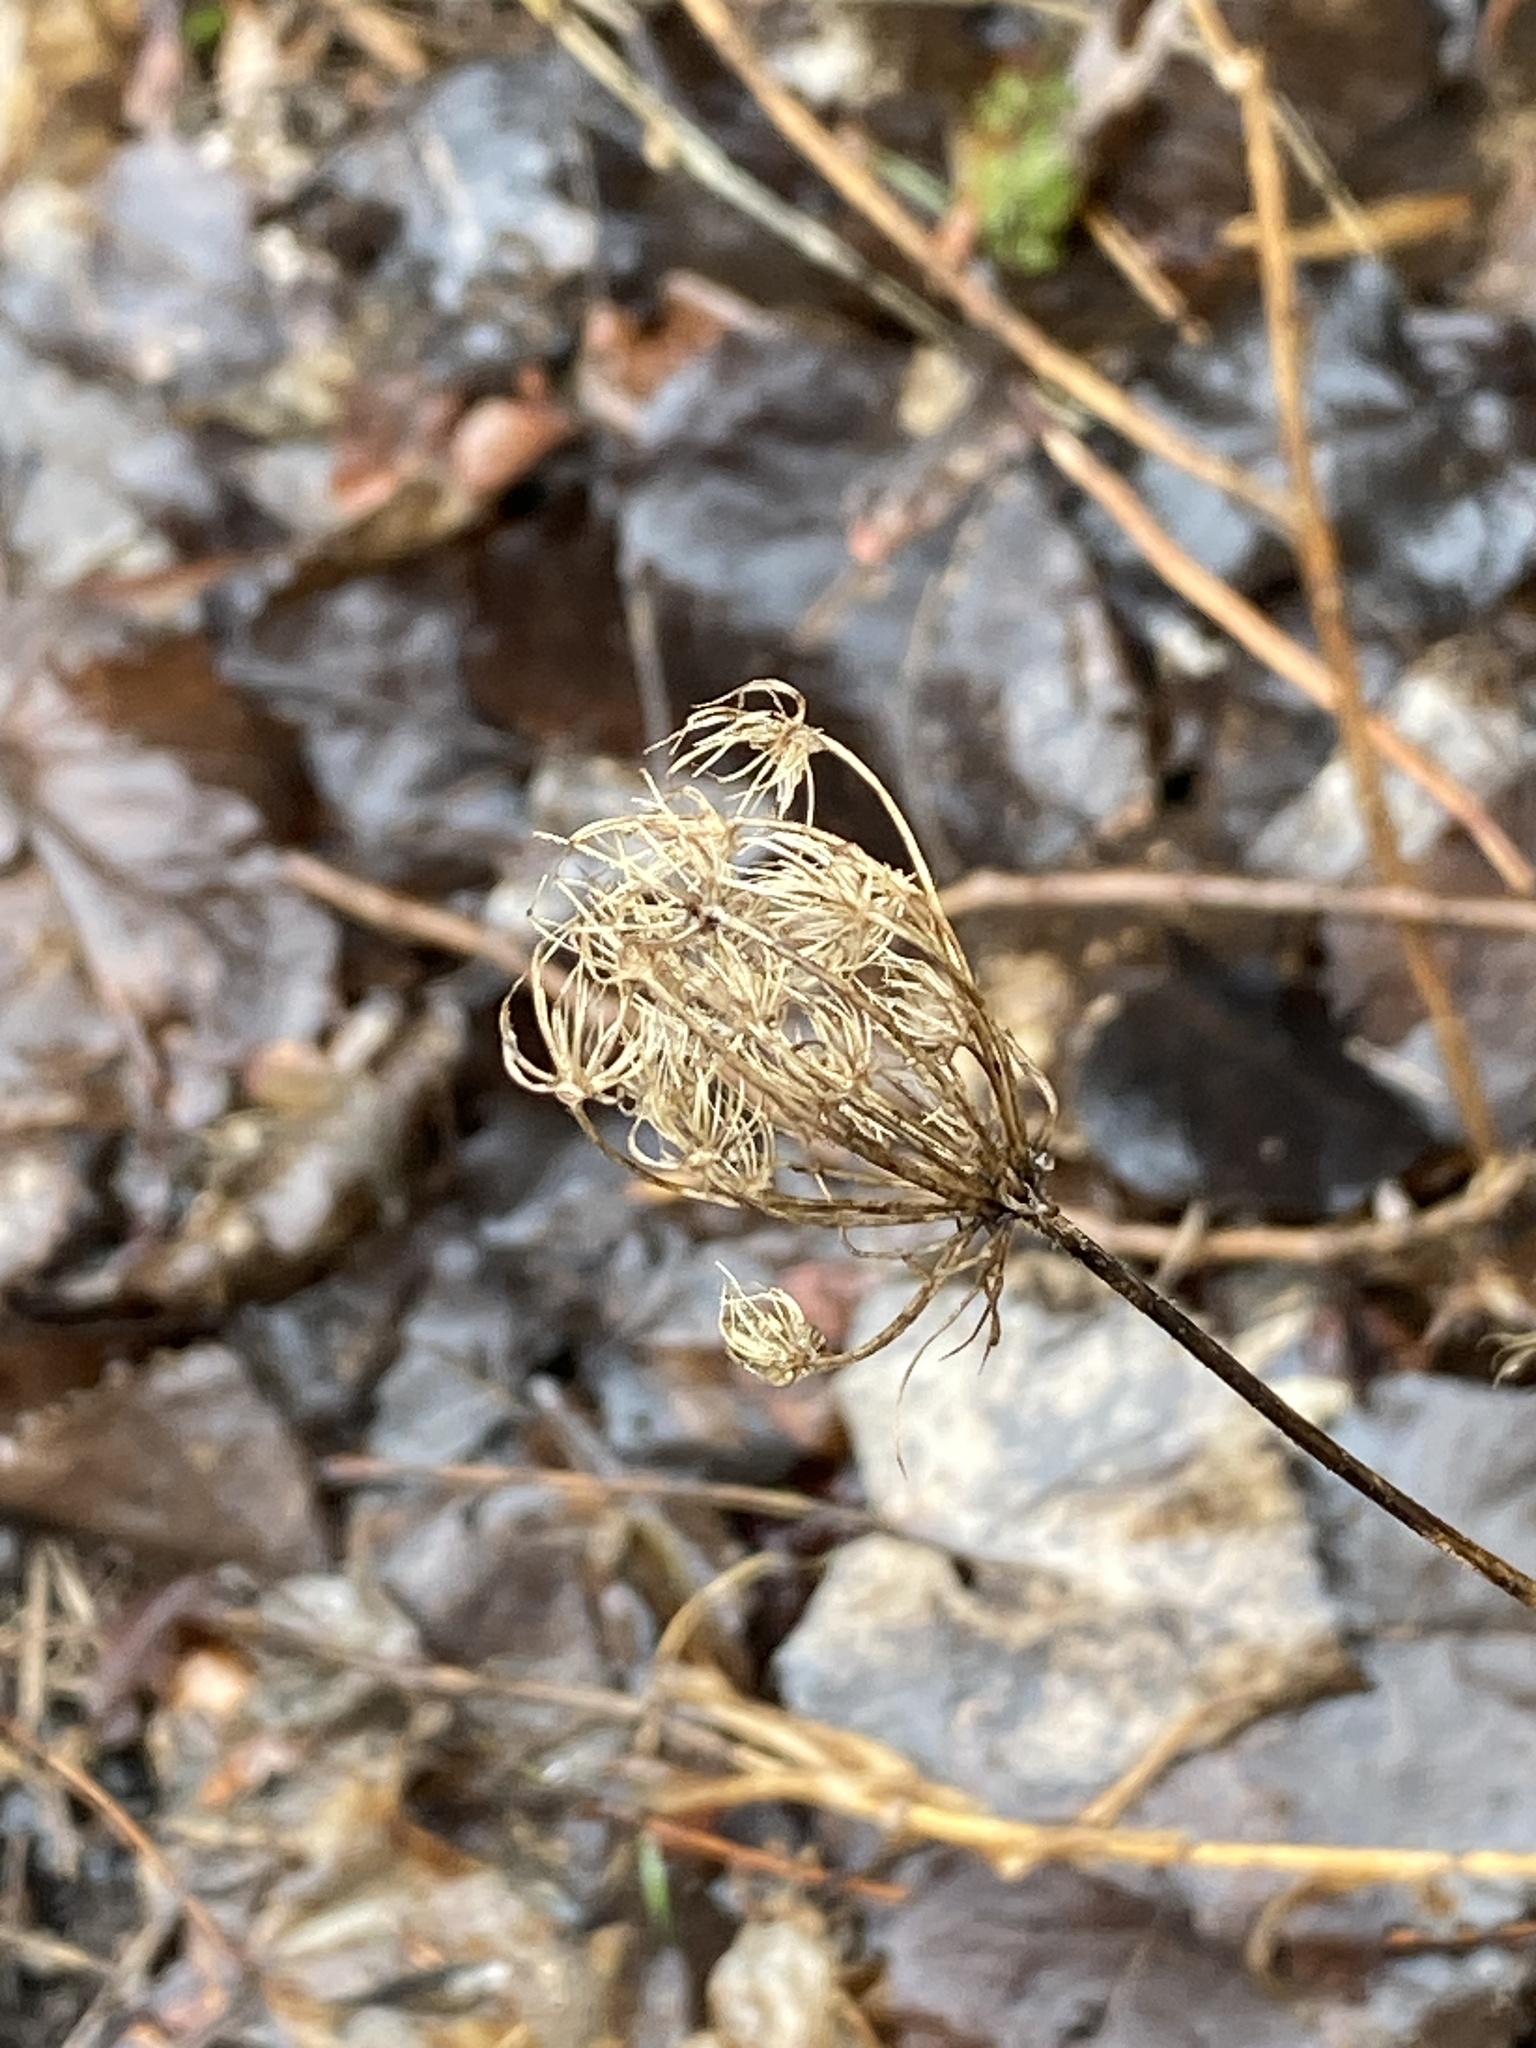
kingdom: Plantae
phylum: Tracheophyta
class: Magnoliopsida
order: Apiales
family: Apiaceae
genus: Daucus
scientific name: Daucus carota
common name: Wild carrot
